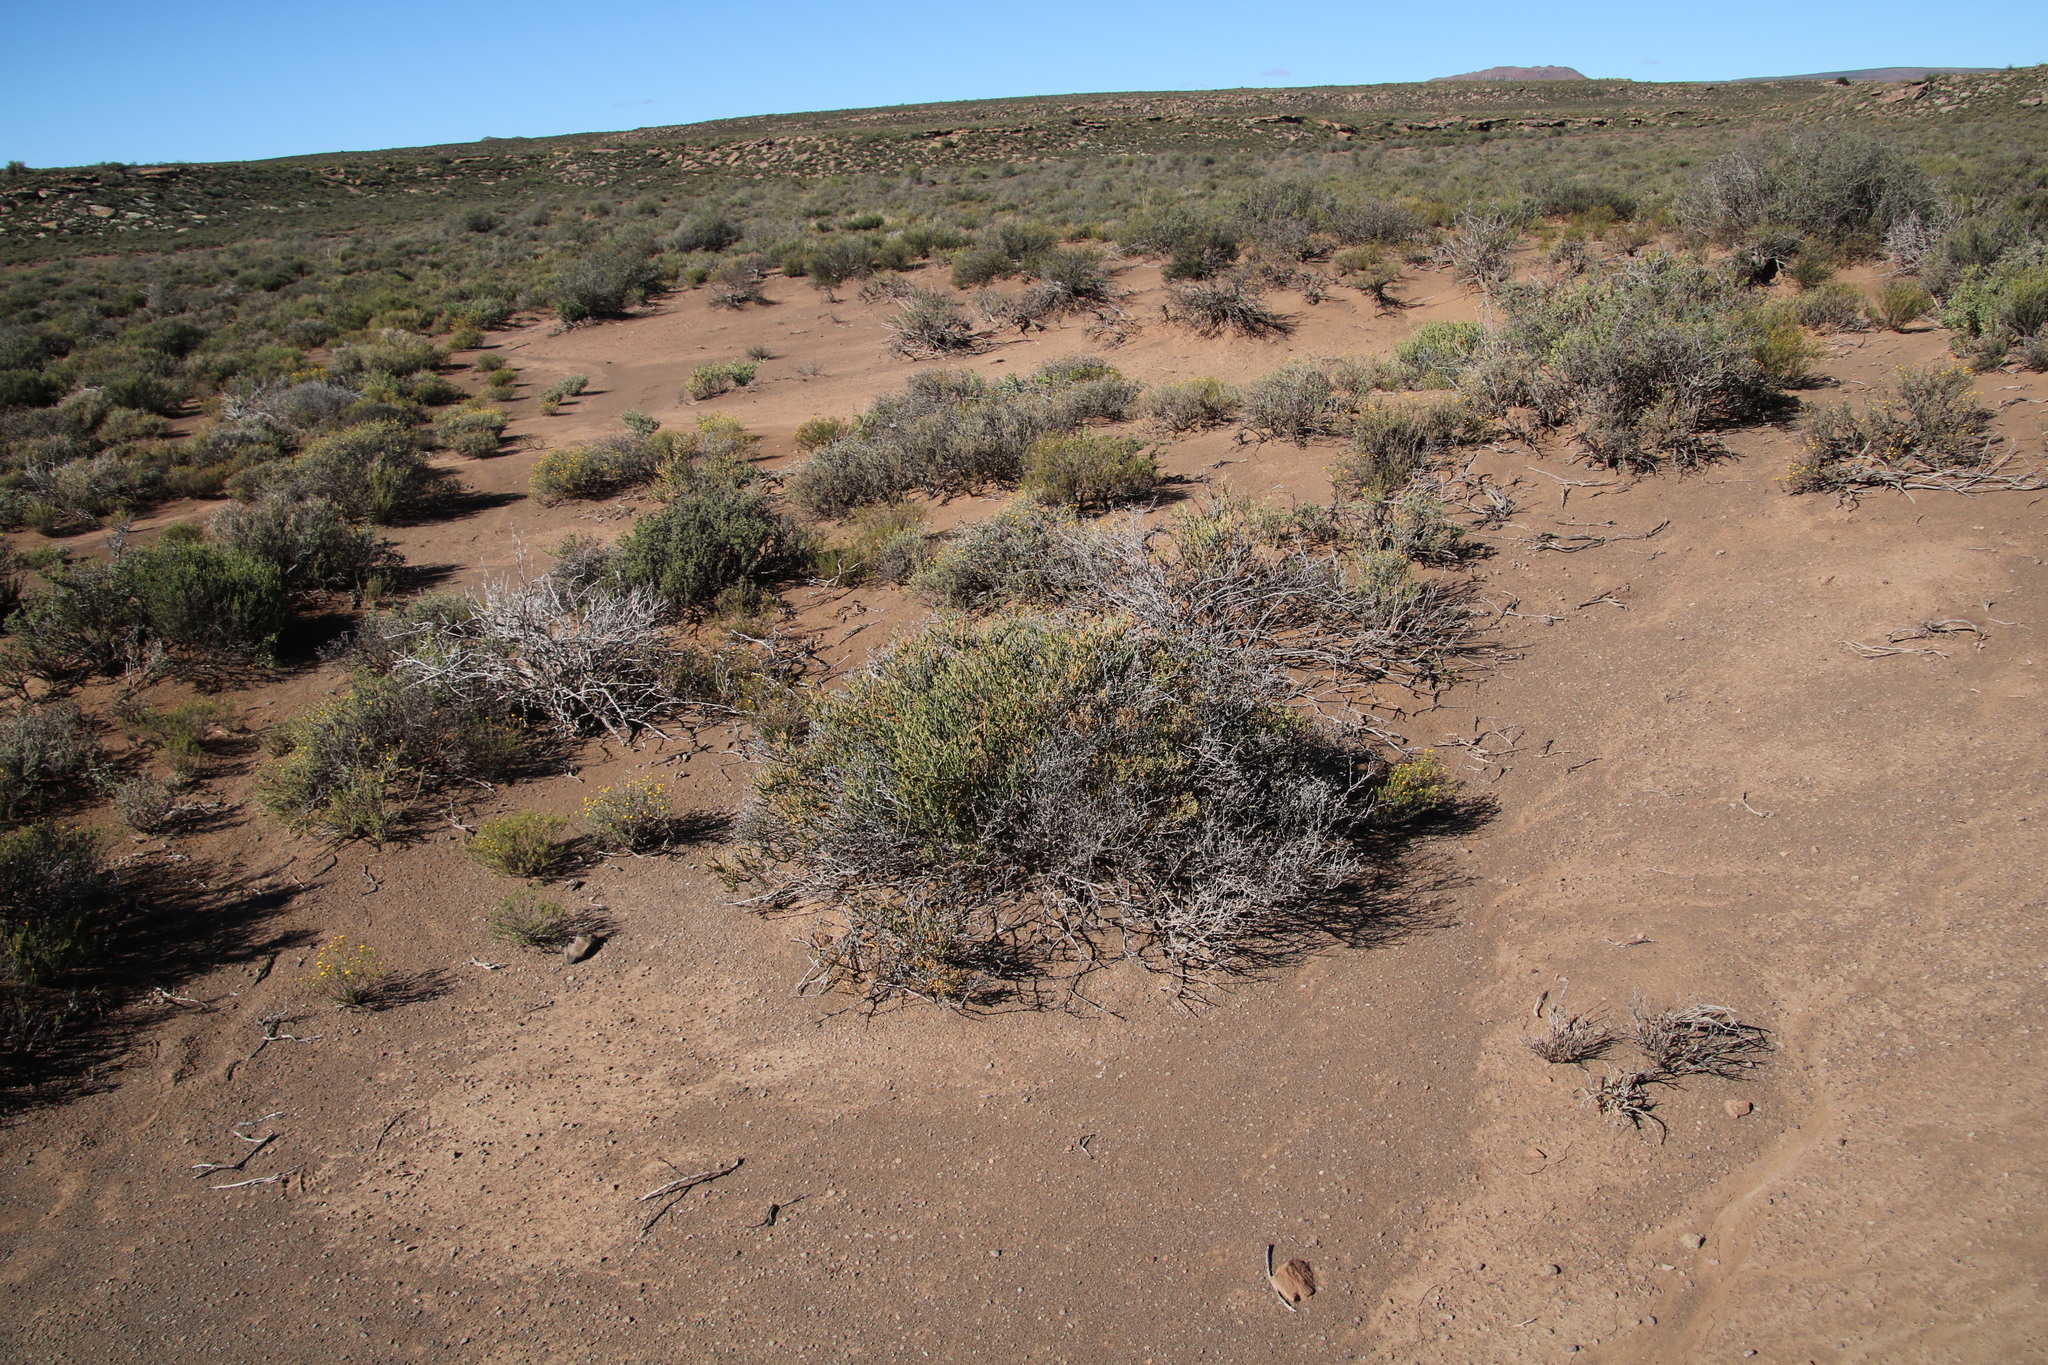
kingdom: Plantae
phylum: Tracheophyta
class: Magnoliopsida
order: Caryophyllales
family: Aizoaceae
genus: Mesembryanthemum
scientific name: Mesembryanthemum coriarium
